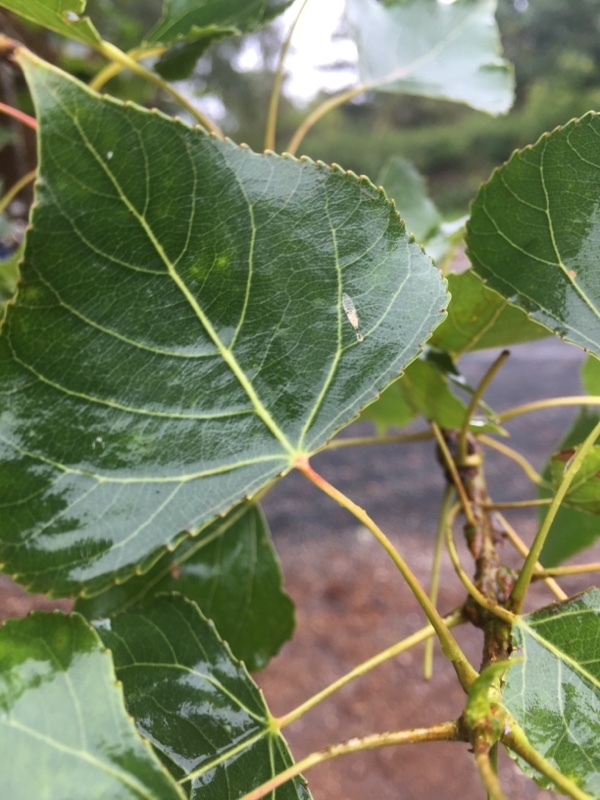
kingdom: Plantae
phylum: Tracheophyta
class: Magnoliopsida
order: Malpighiales
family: Salicaceae
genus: Populus
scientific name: Populus nigra
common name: Black poplar
